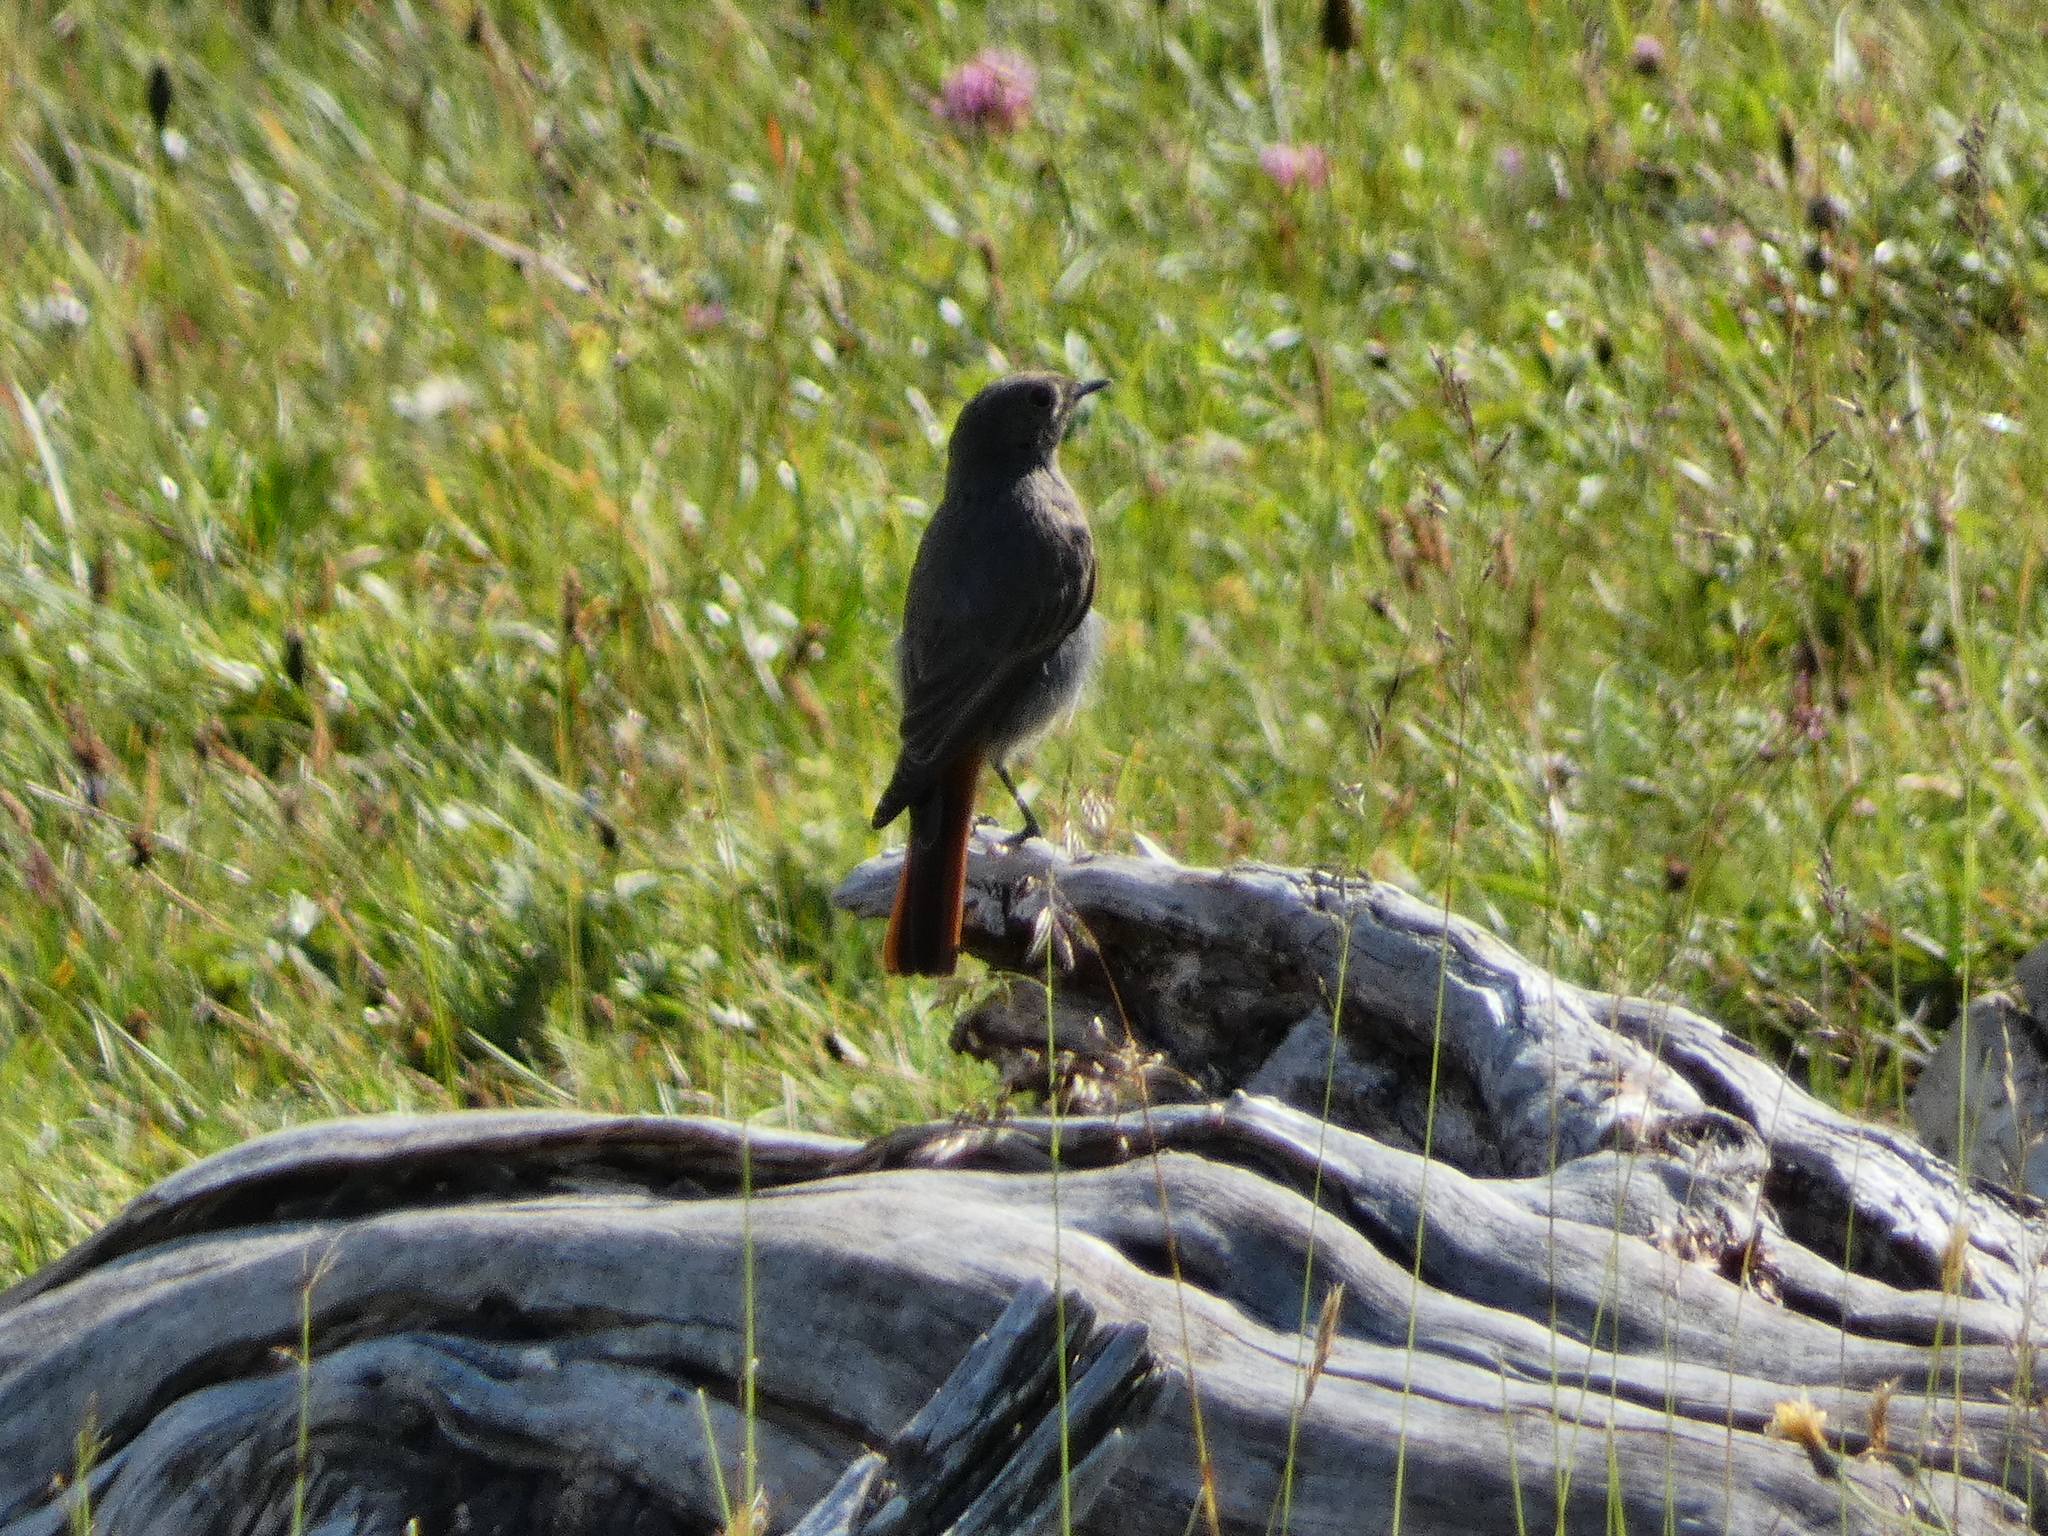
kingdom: Animalia
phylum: Chordata
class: Aves
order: Passeriformes
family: Muscicapidae
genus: Phoenicurus
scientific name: Phoenicurus ochruros
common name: Black redstart
